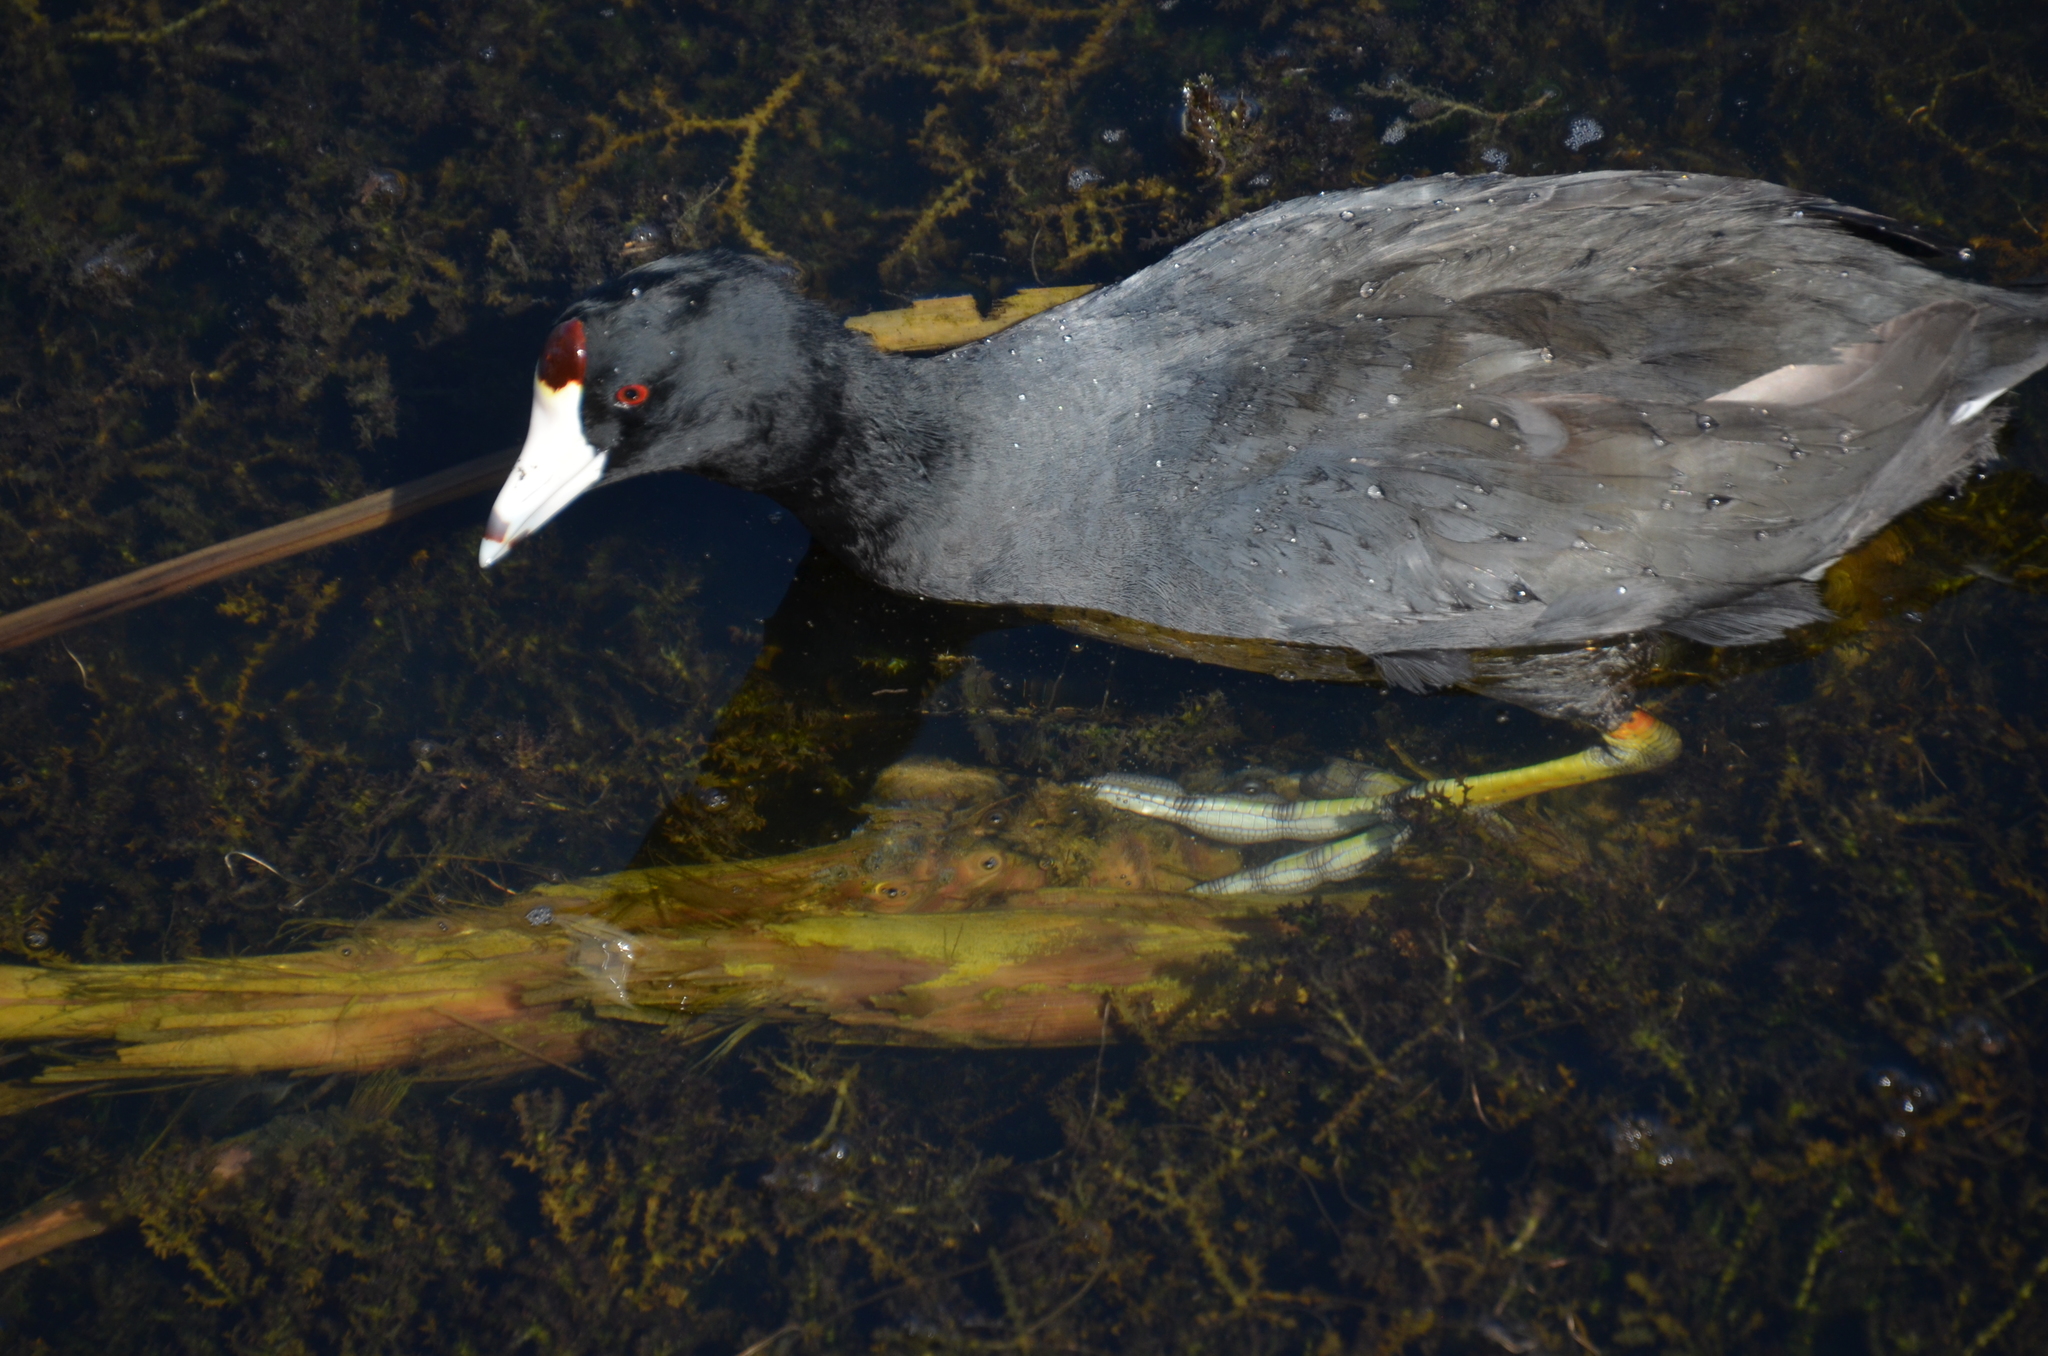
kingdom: Animalia
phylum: Chordata
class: Aves
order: Gruiformes
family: Rallidae
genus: Fulica
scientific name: Fulica americana
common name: American coot
